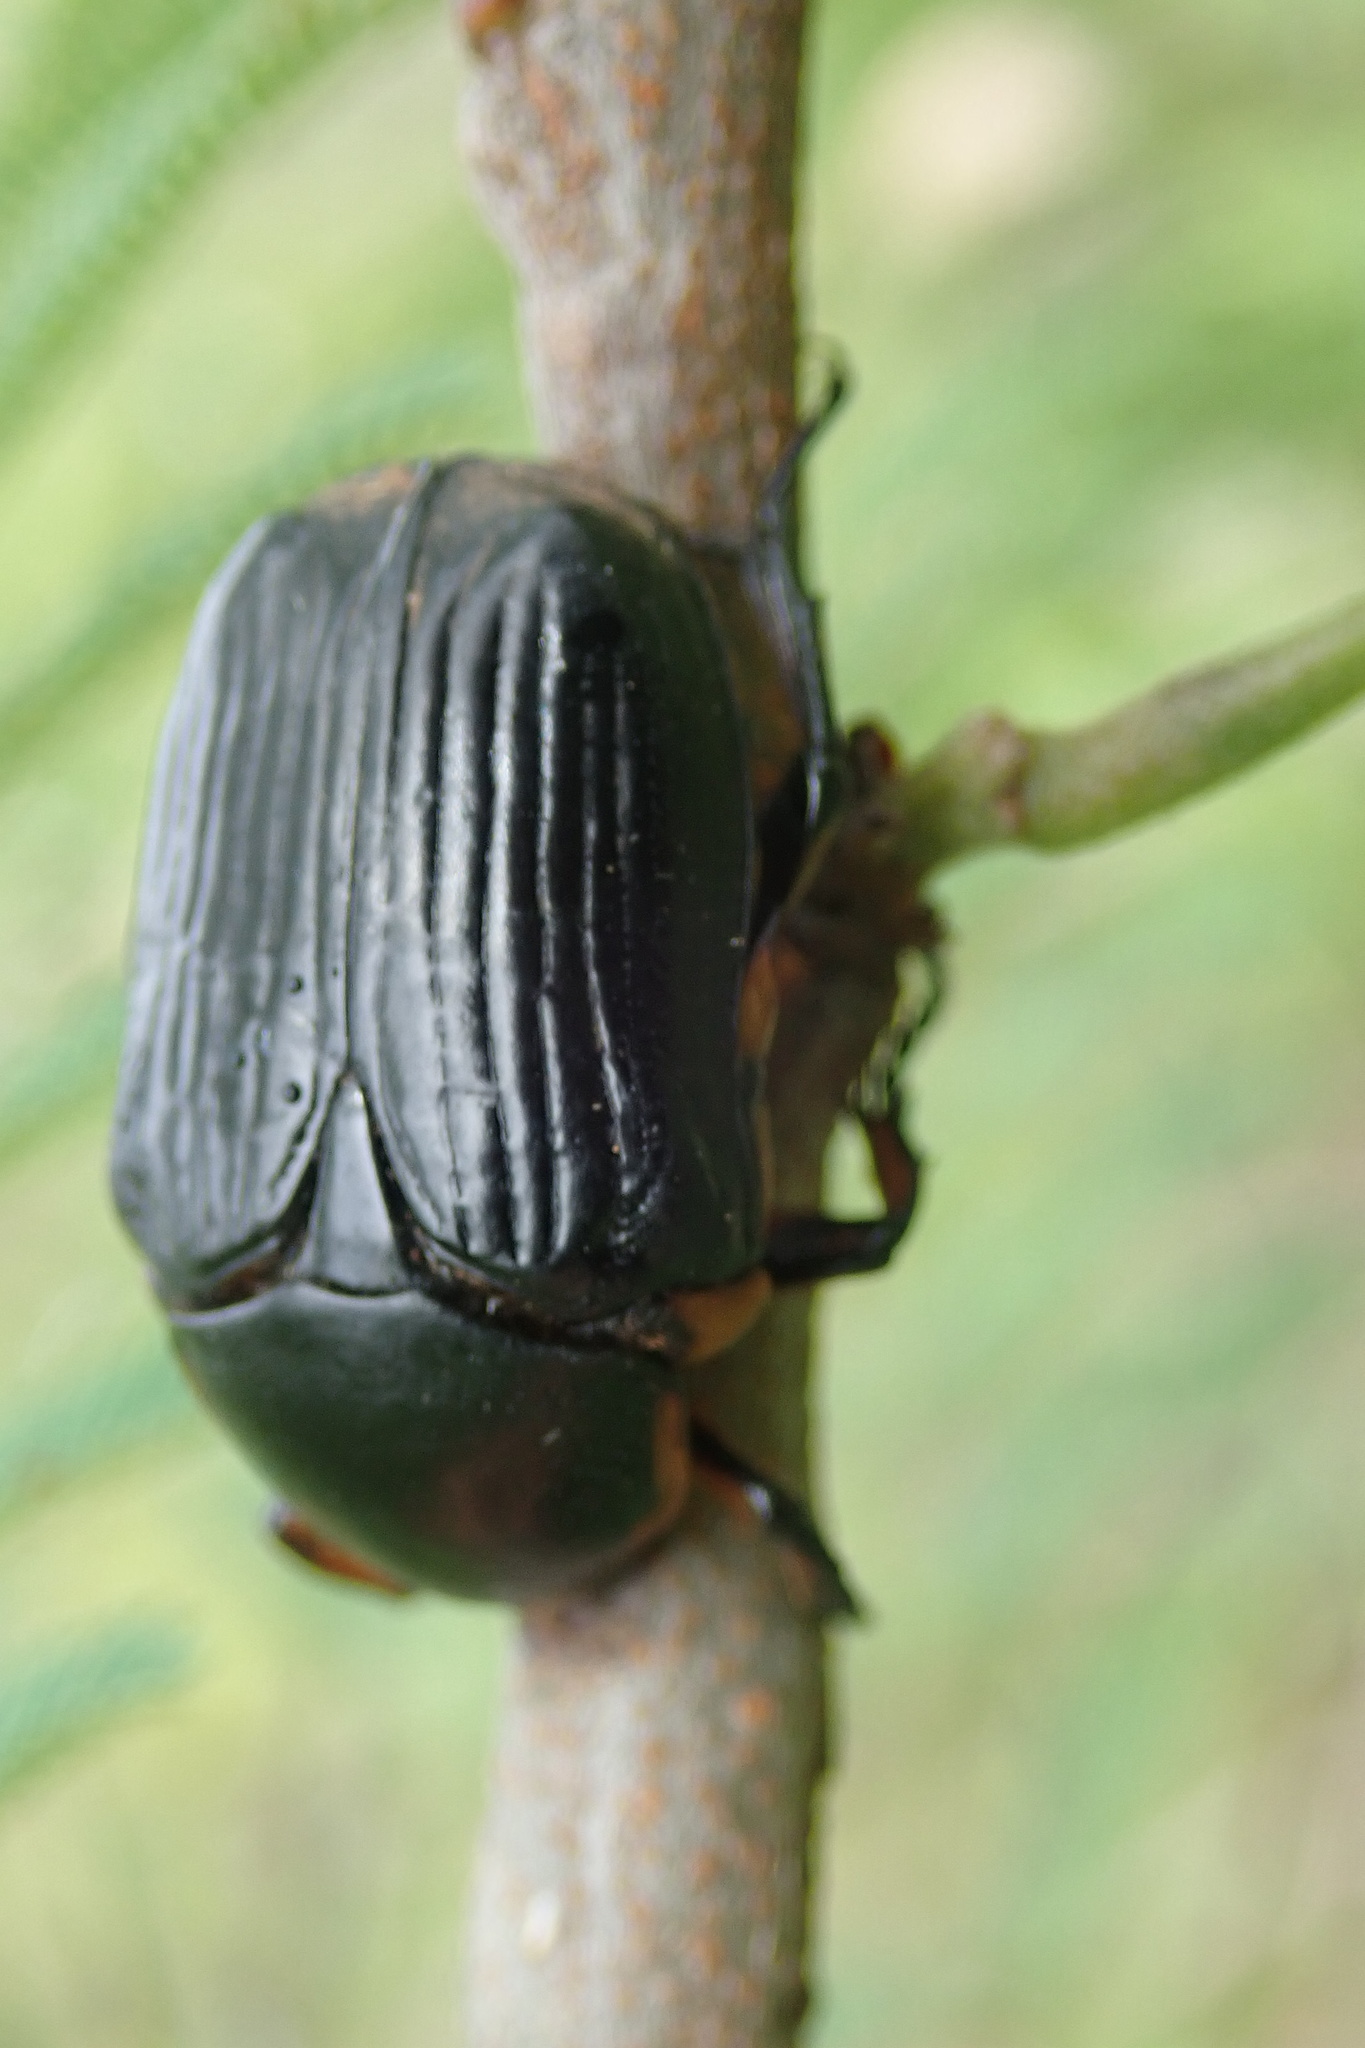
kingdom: Animalia
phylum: Arthropoda
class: Insecta
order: Coleoptera
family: Scarabaeidae
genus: Diplognatha
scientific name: Diplognatha striata
